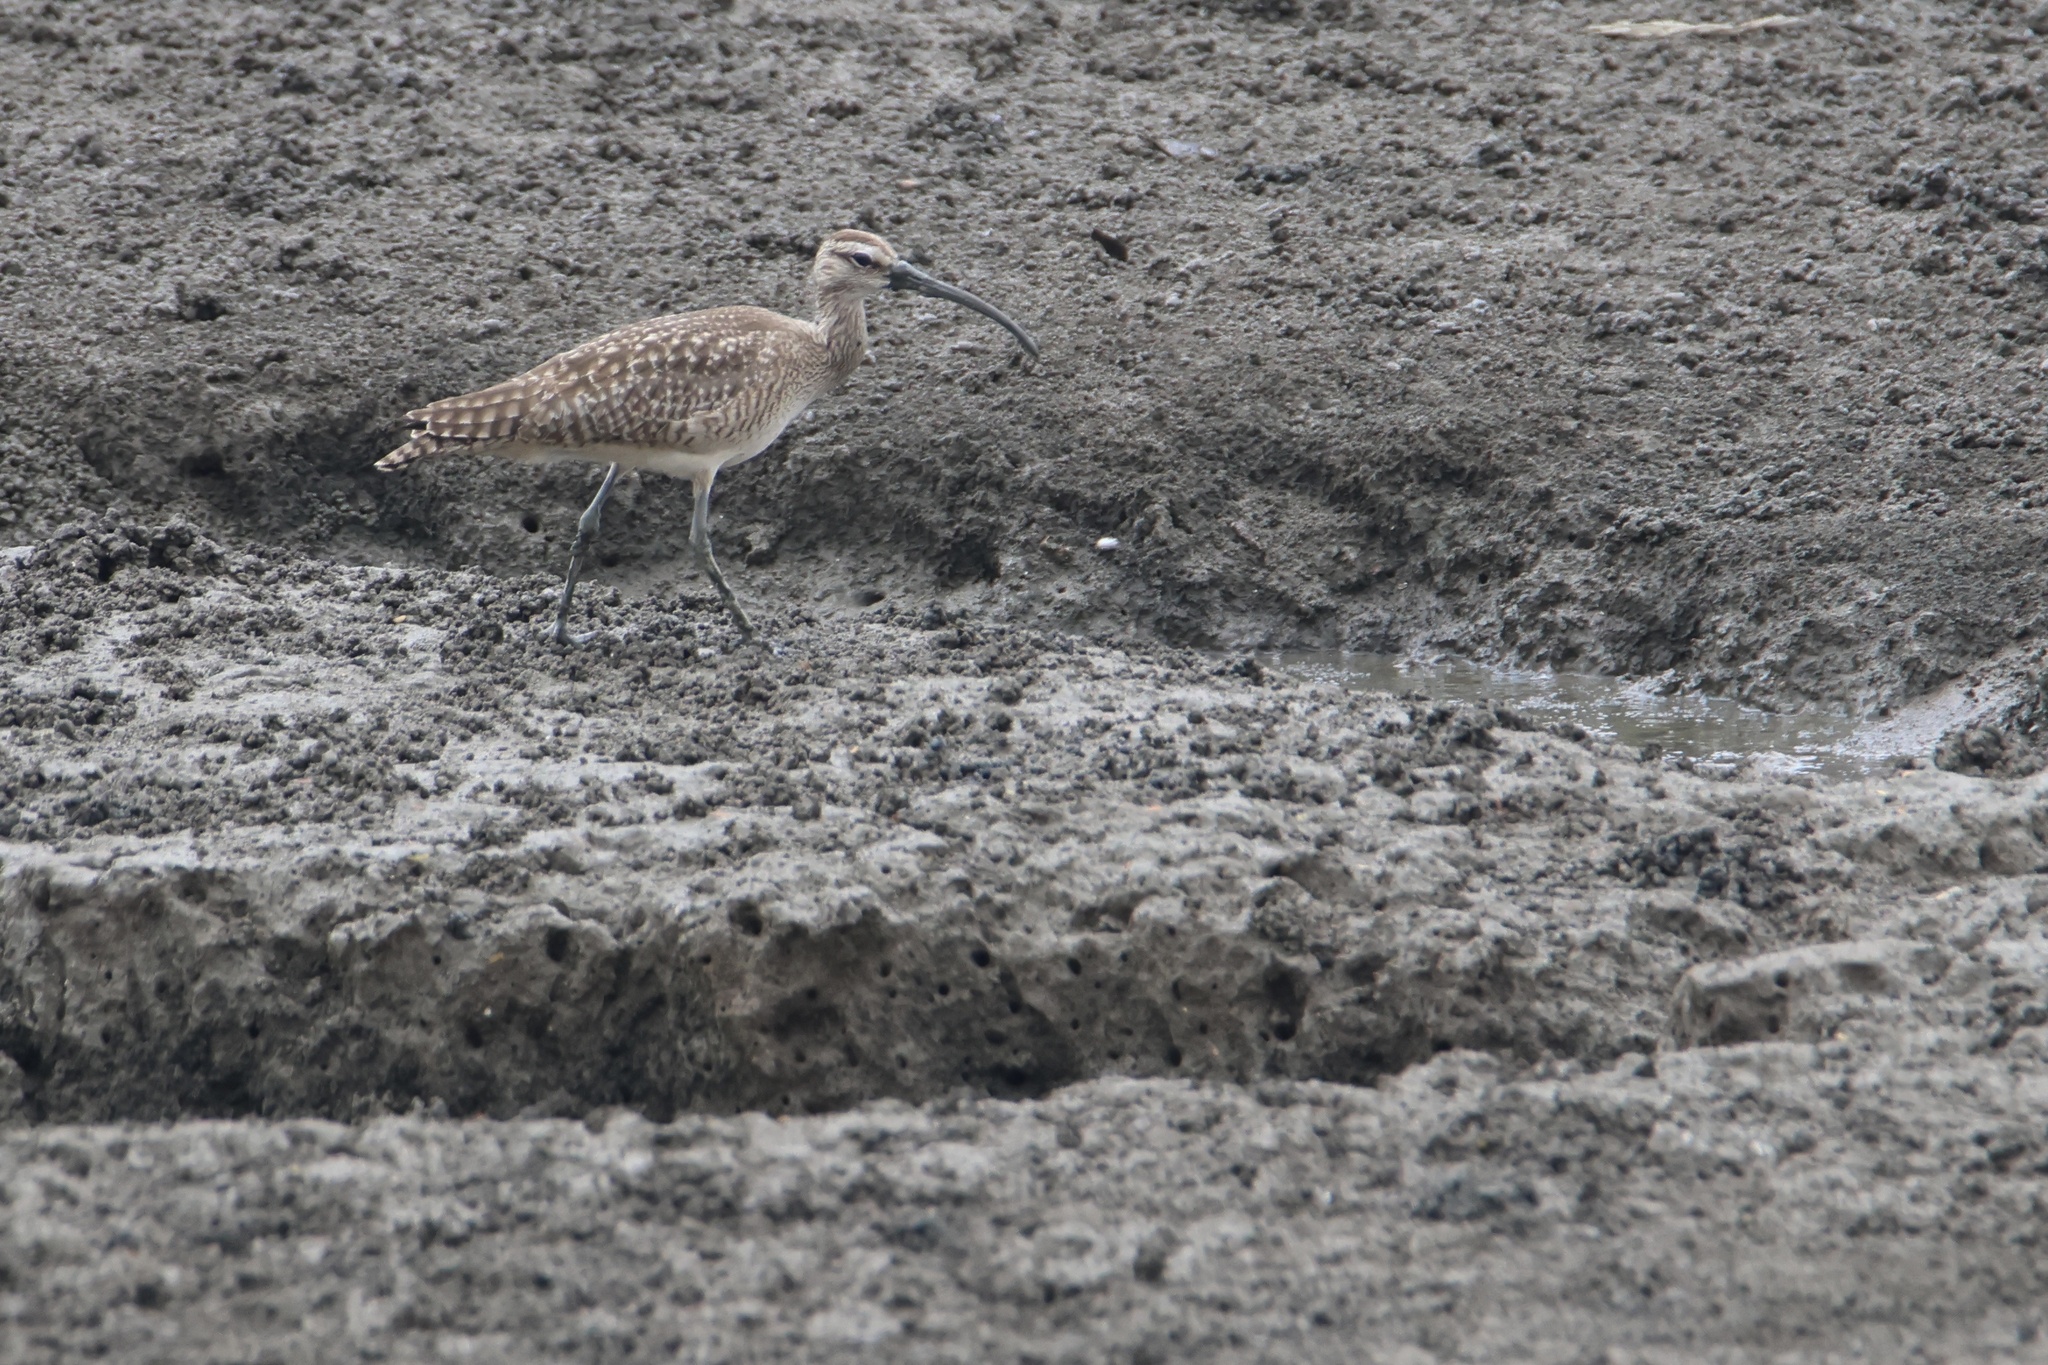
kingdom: Animalia
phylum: Chordata
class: Aves
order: Charadriiformes
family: Scolopacidae
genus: Numenius
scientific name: Numenius phaeopus
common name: Whimbrel
